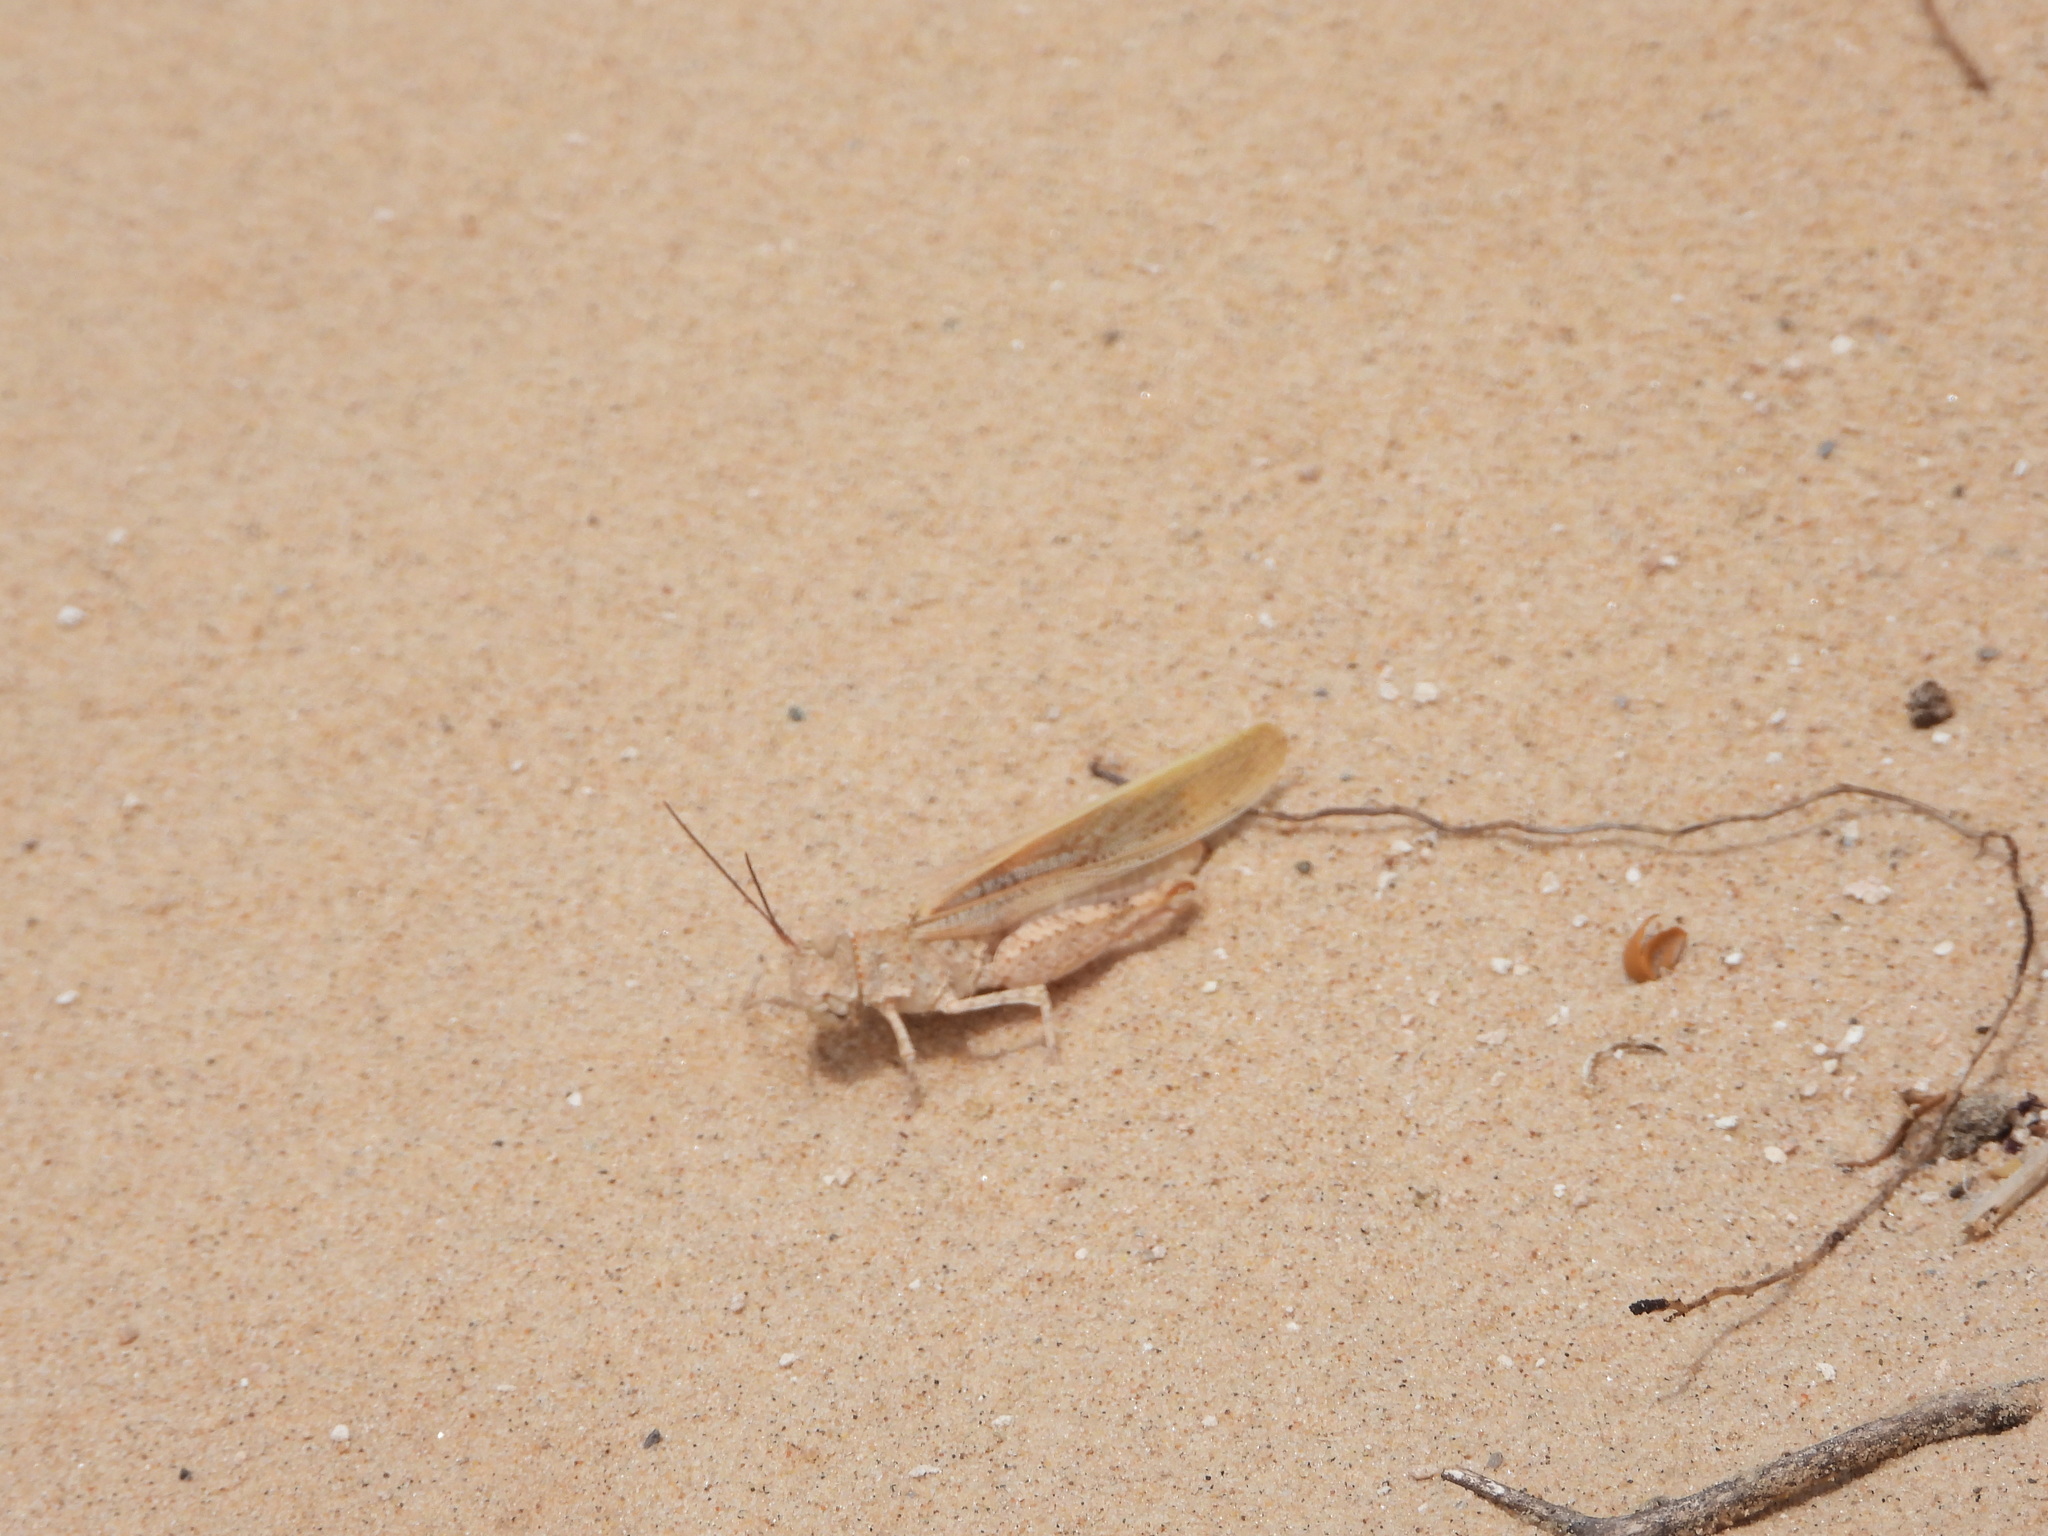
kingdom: Animalia
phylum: Arthropoda
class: Insecta
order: Orthoptera
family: Acrididae
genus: Trimerotropis
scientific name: Trimerotropis agrestis
